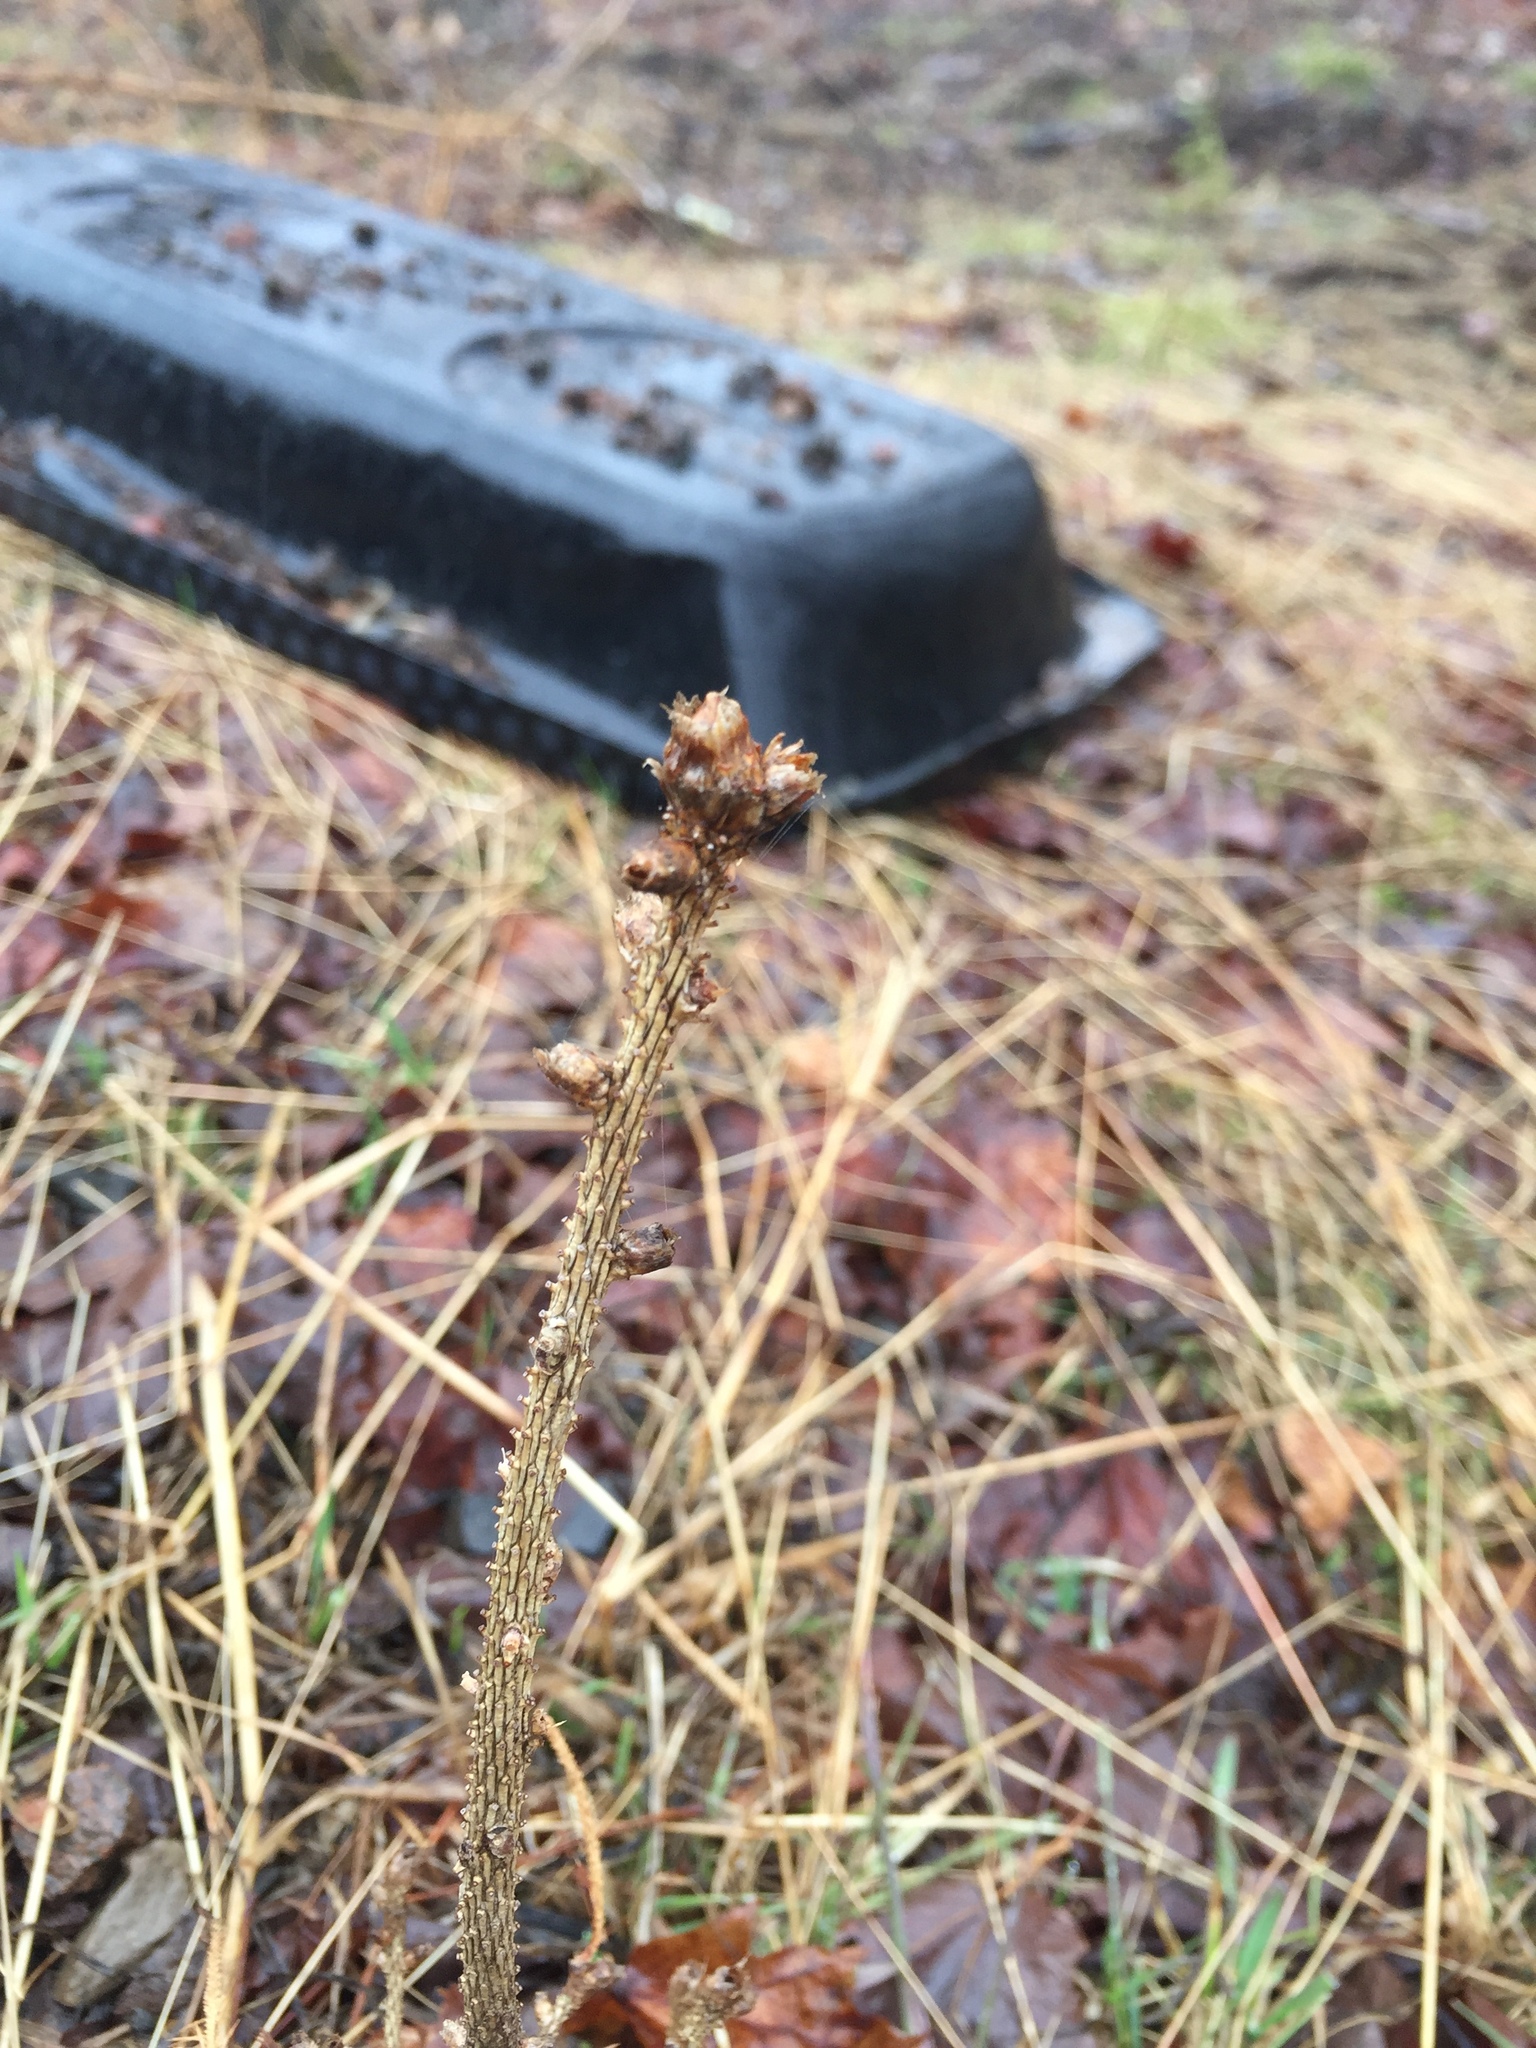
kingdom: Plantae
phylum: Tracheophyta
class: Pinopsida
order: Pinales
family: Pinaceae
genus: Larix
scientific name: Larix laricina
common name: American larch
